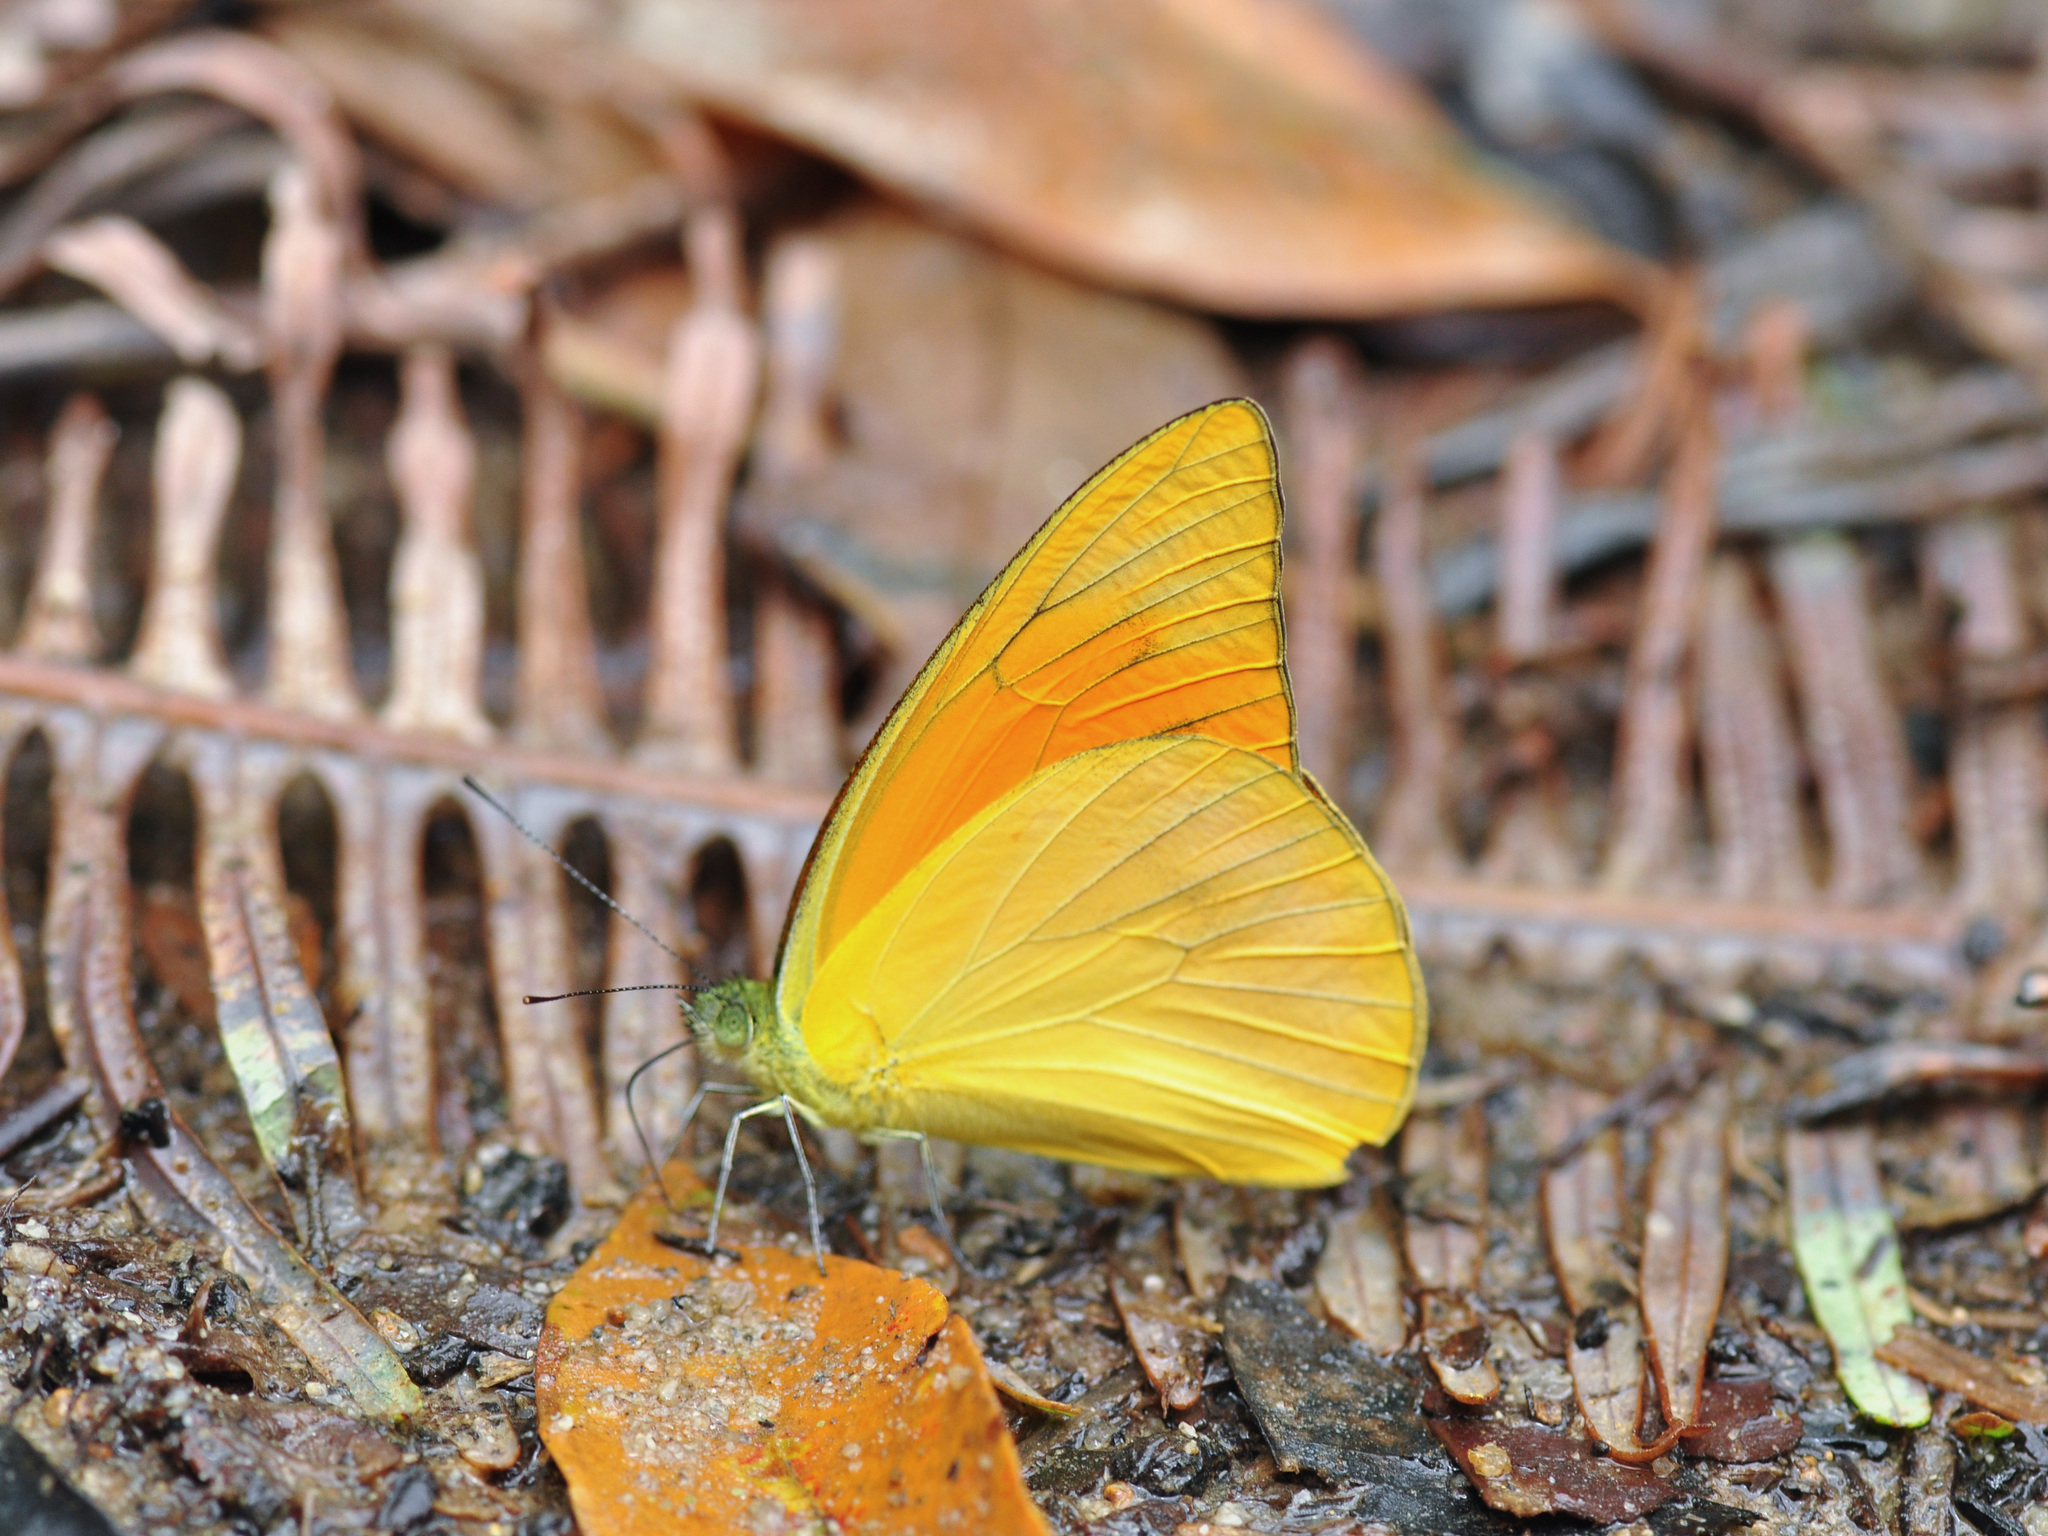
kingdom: Animalia
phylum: Arthropoda
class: Insecta
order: Lepidoptera
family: Pieridae
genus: Appias
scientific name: Appias nero
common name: Orange albatross
